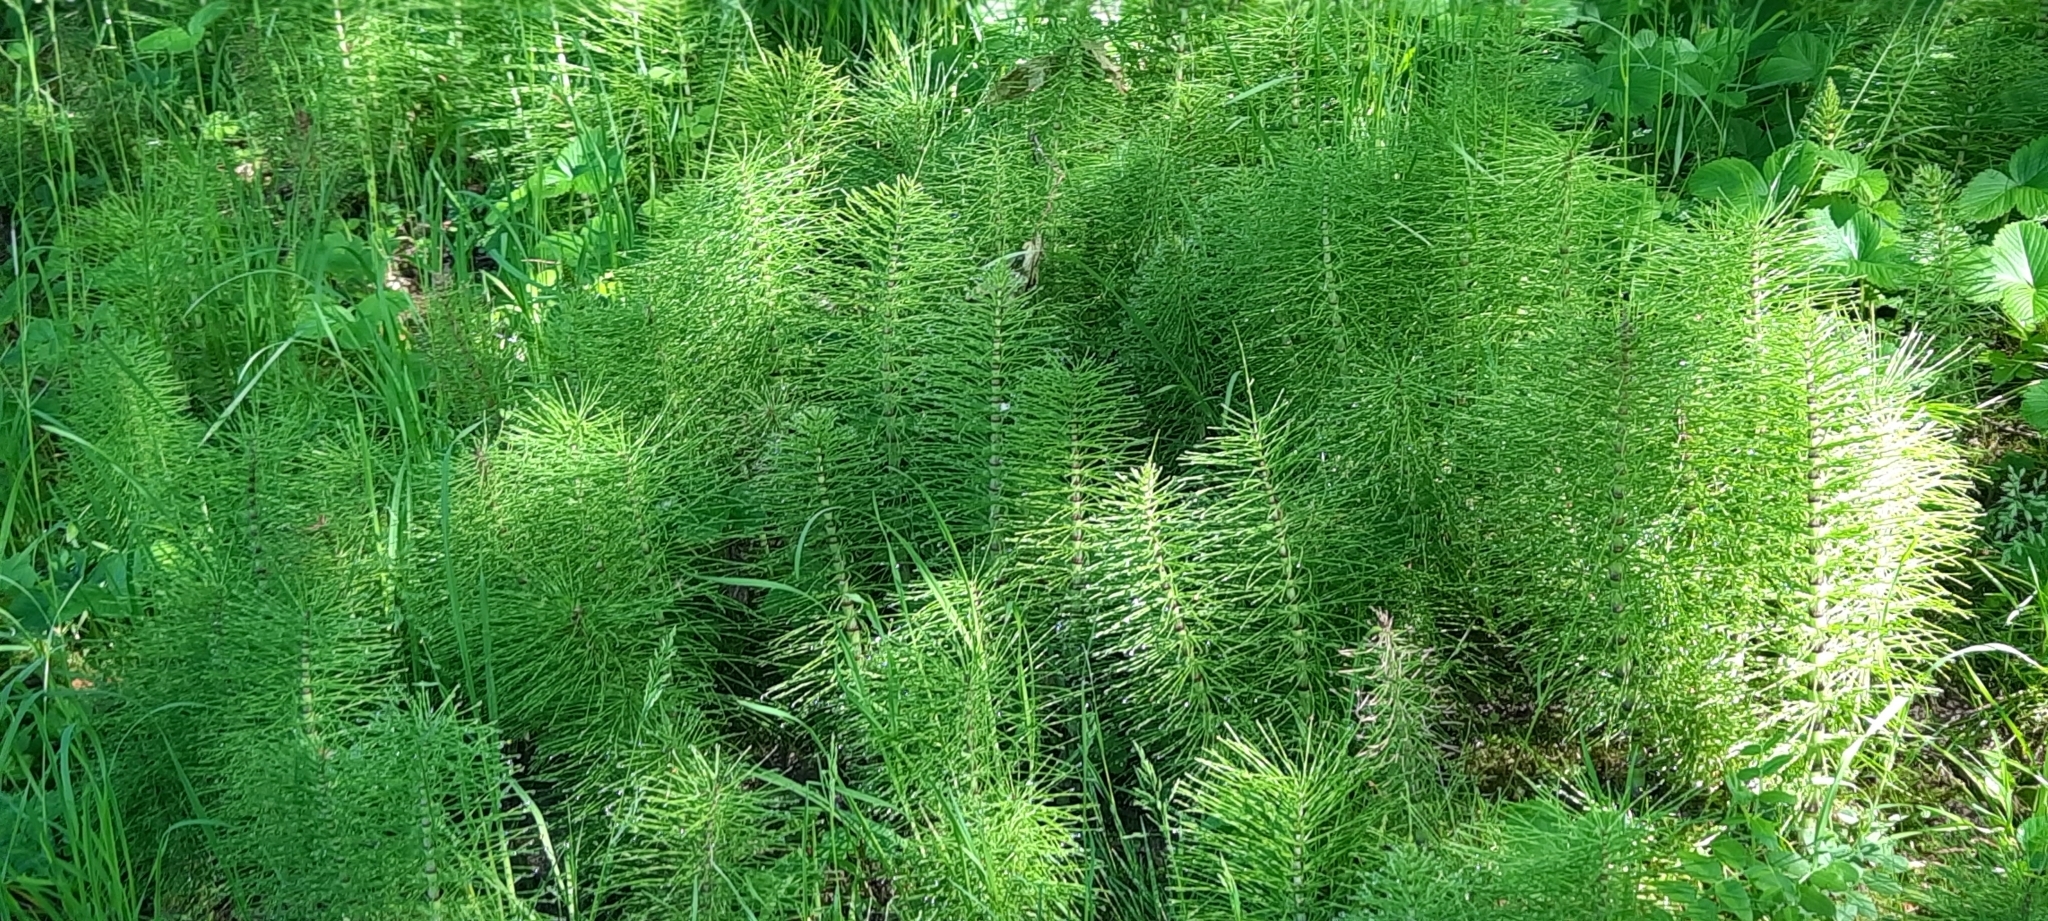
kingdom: Plantae
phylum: Tracheophyta
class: Polypodiopsida
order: Equisetales
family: Equisetaceae
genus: Equisetum
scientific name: Equisetum telmateia
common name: Great horsetail
